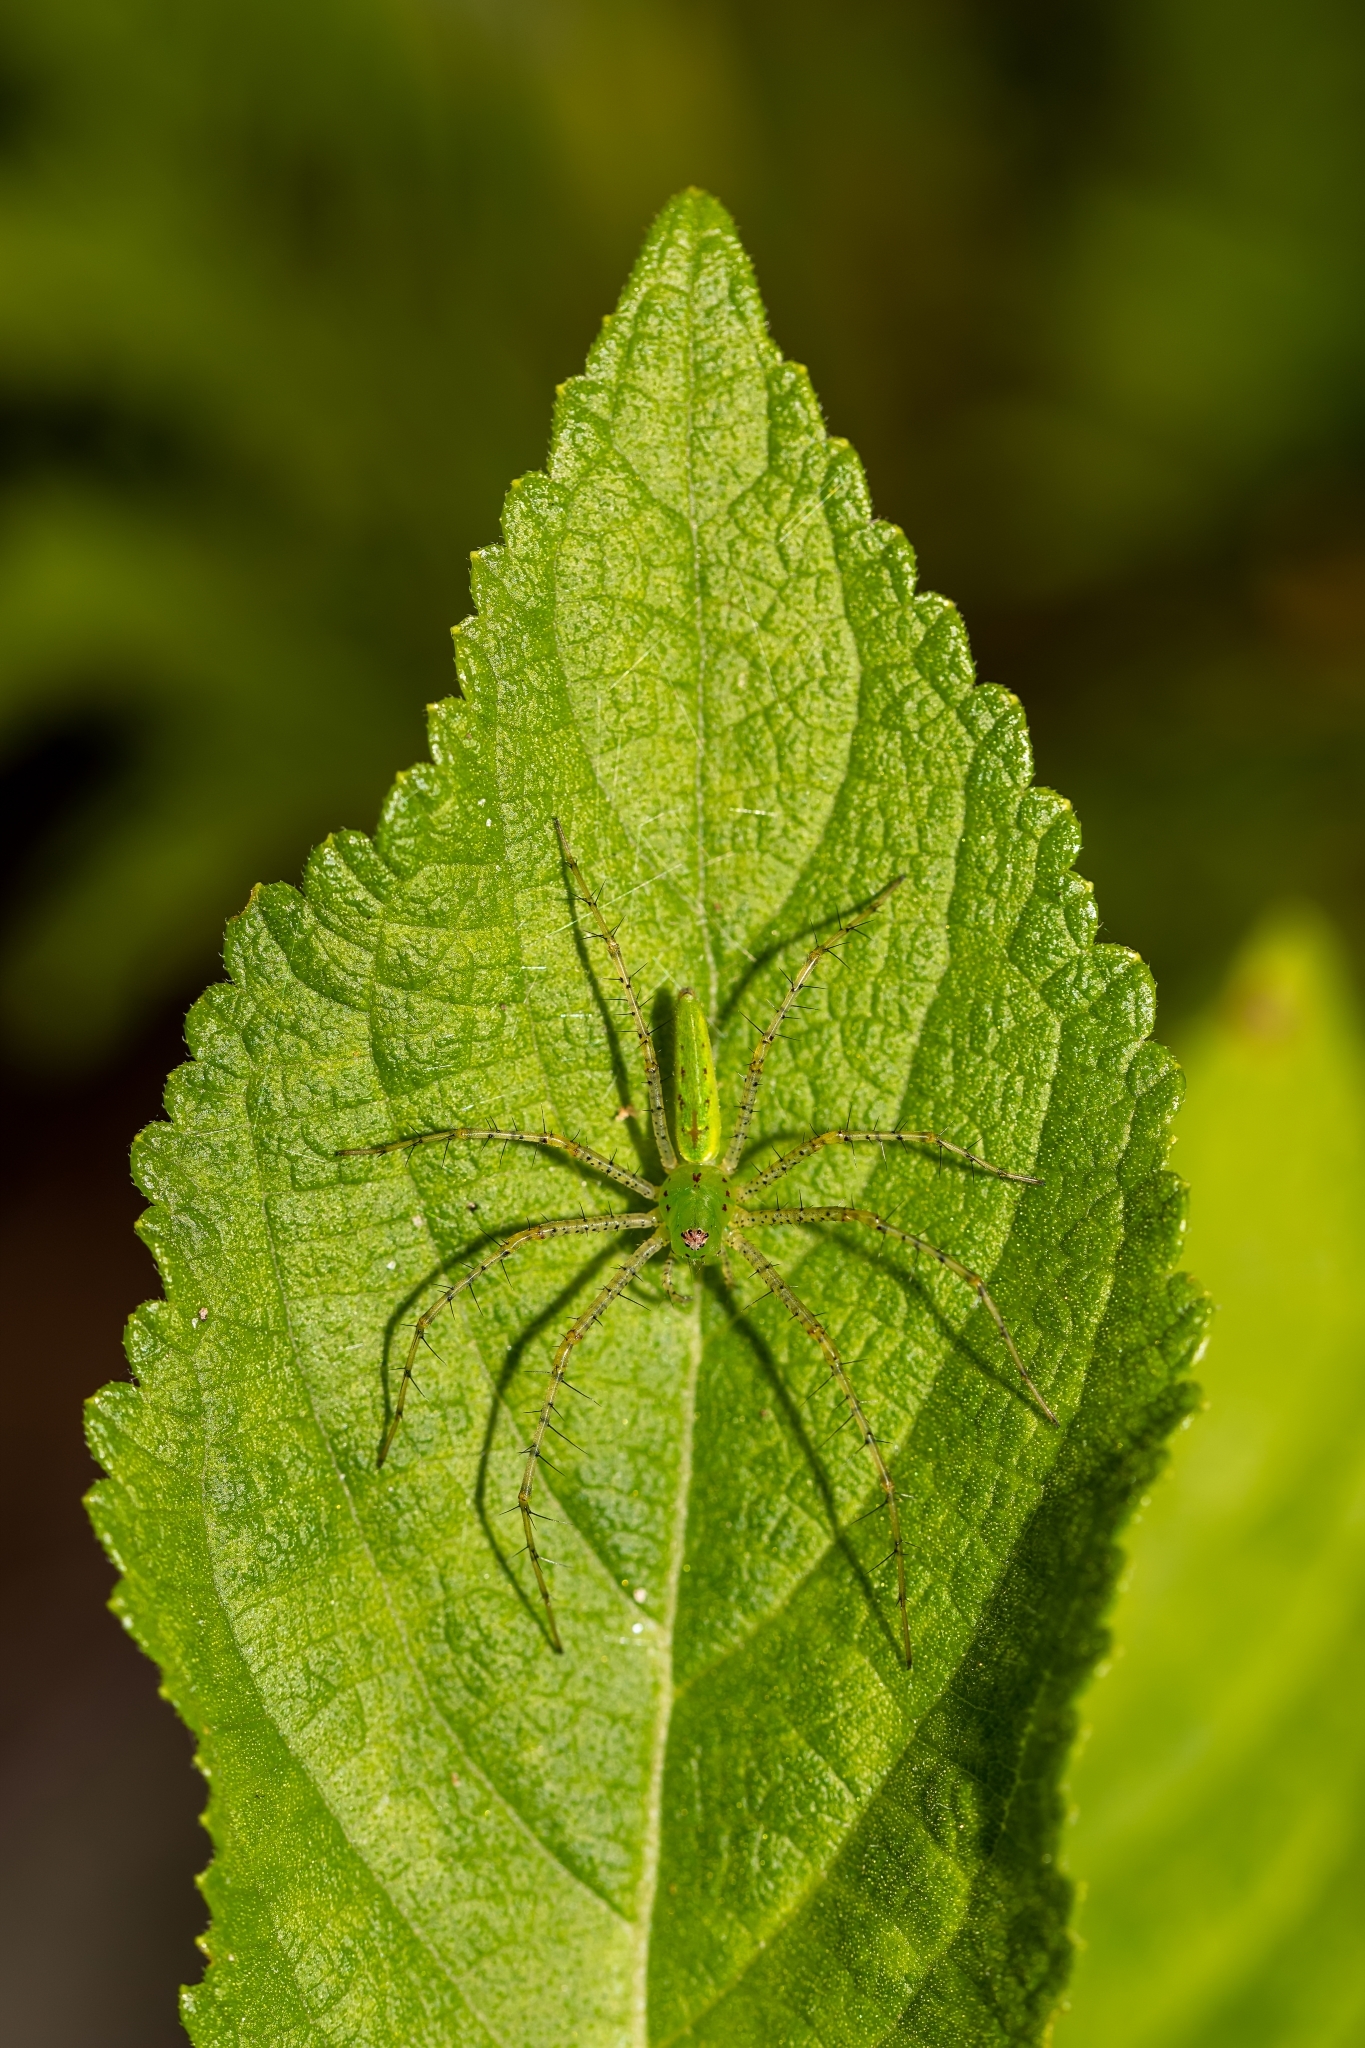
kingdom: Animalia
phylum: Arthropoda
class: Arachnida
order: Araneae
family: Oxyopidae
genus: Peucetia
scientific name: Peucetia viridans
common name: Lynx spiders
